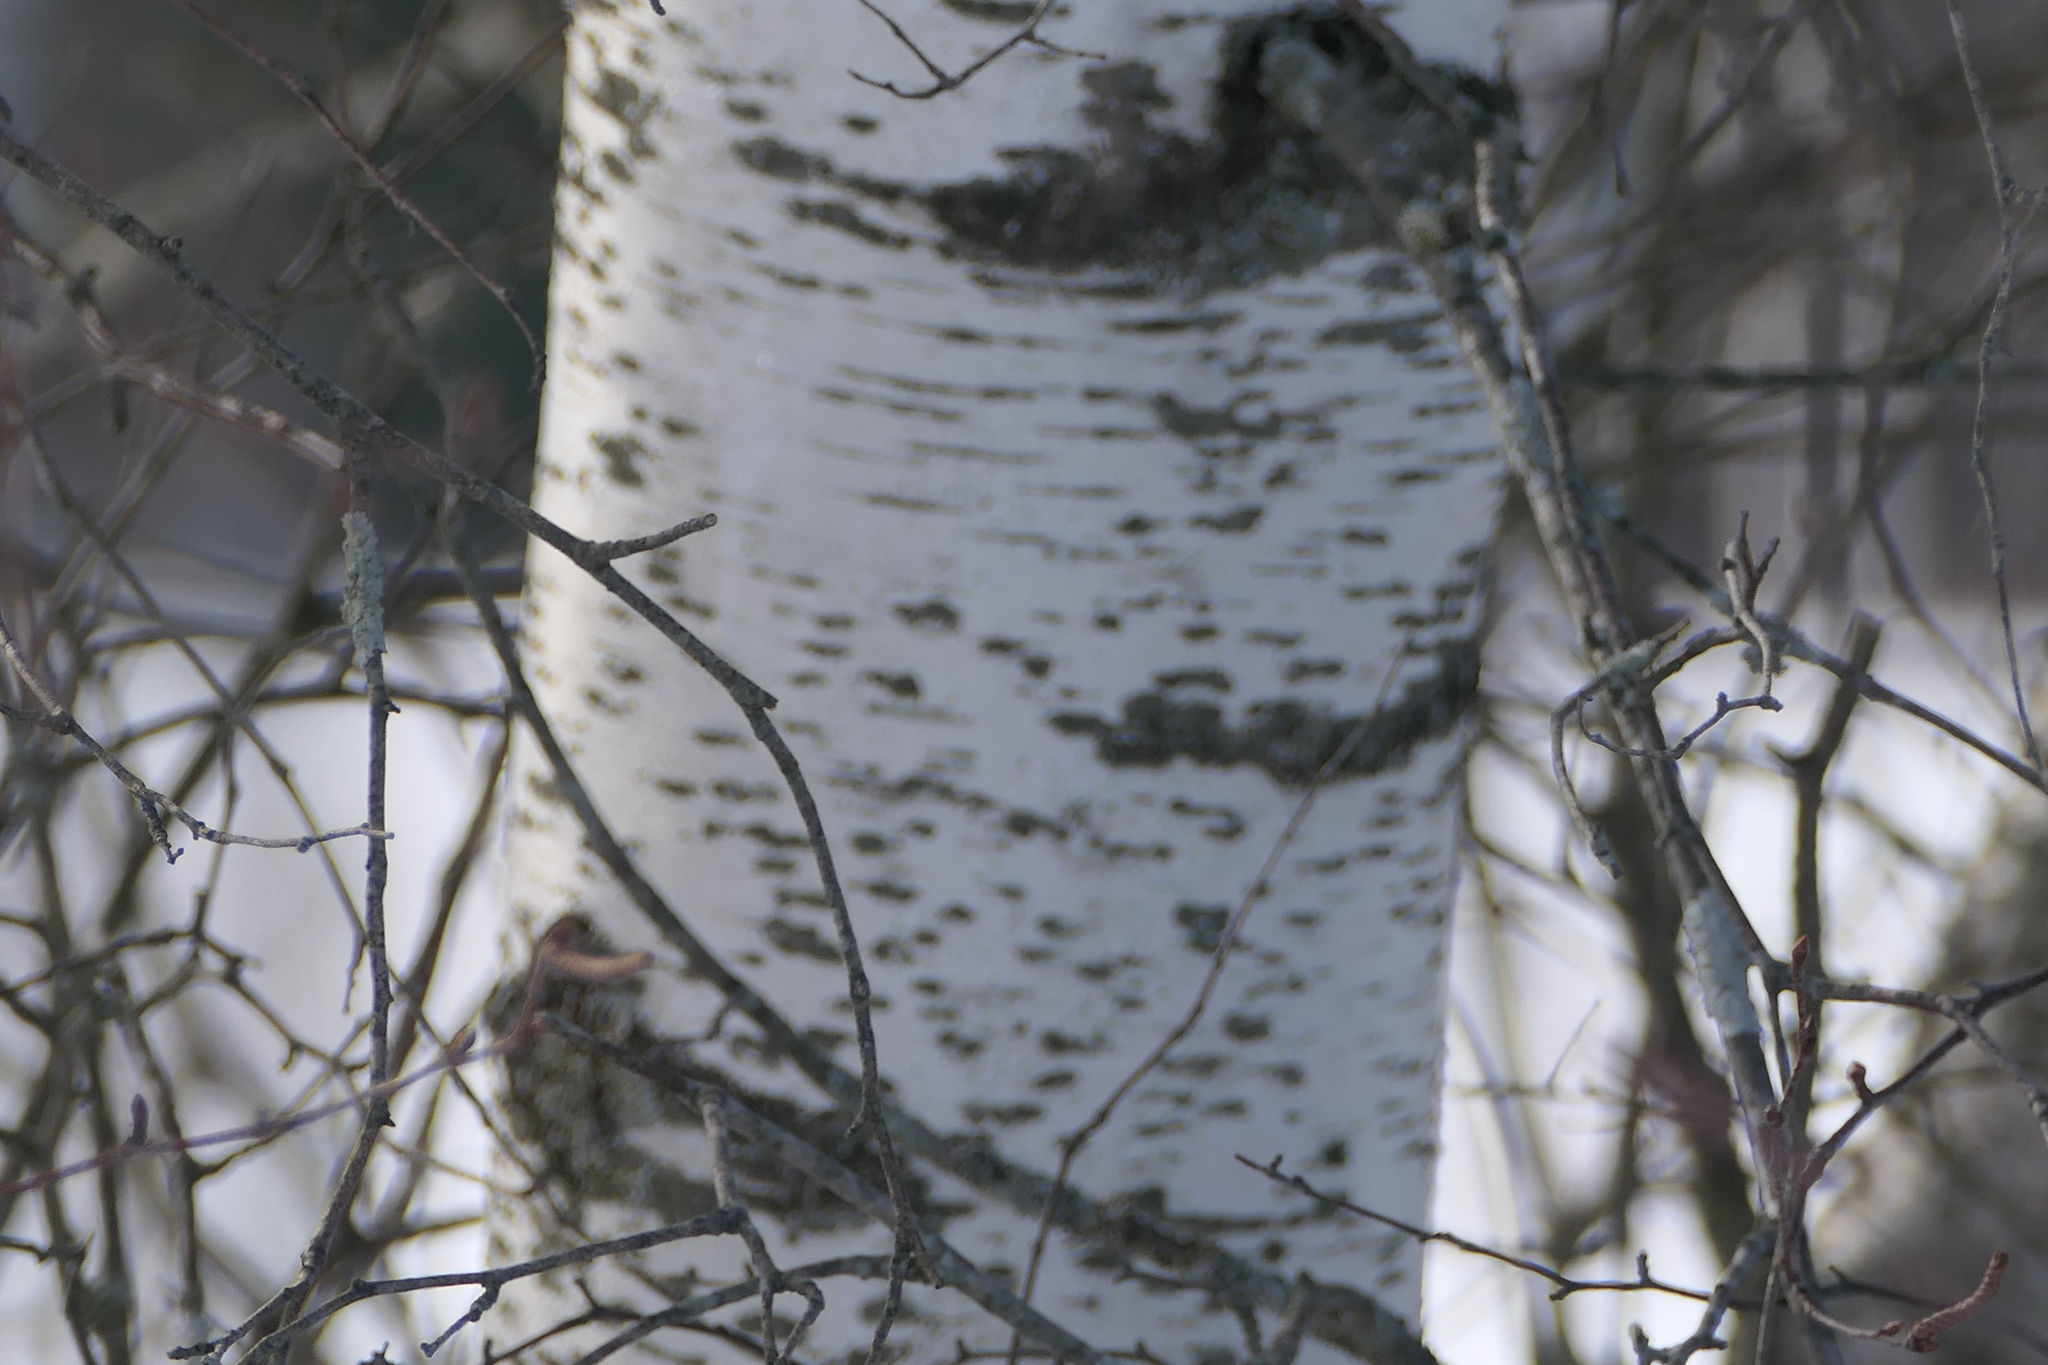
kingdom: Plantae
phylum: Tracheophyta
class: Magnoliopsida
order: Fagales
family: Betulaceae
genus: Betula
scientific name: Betula populifolia
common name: Fire birch
